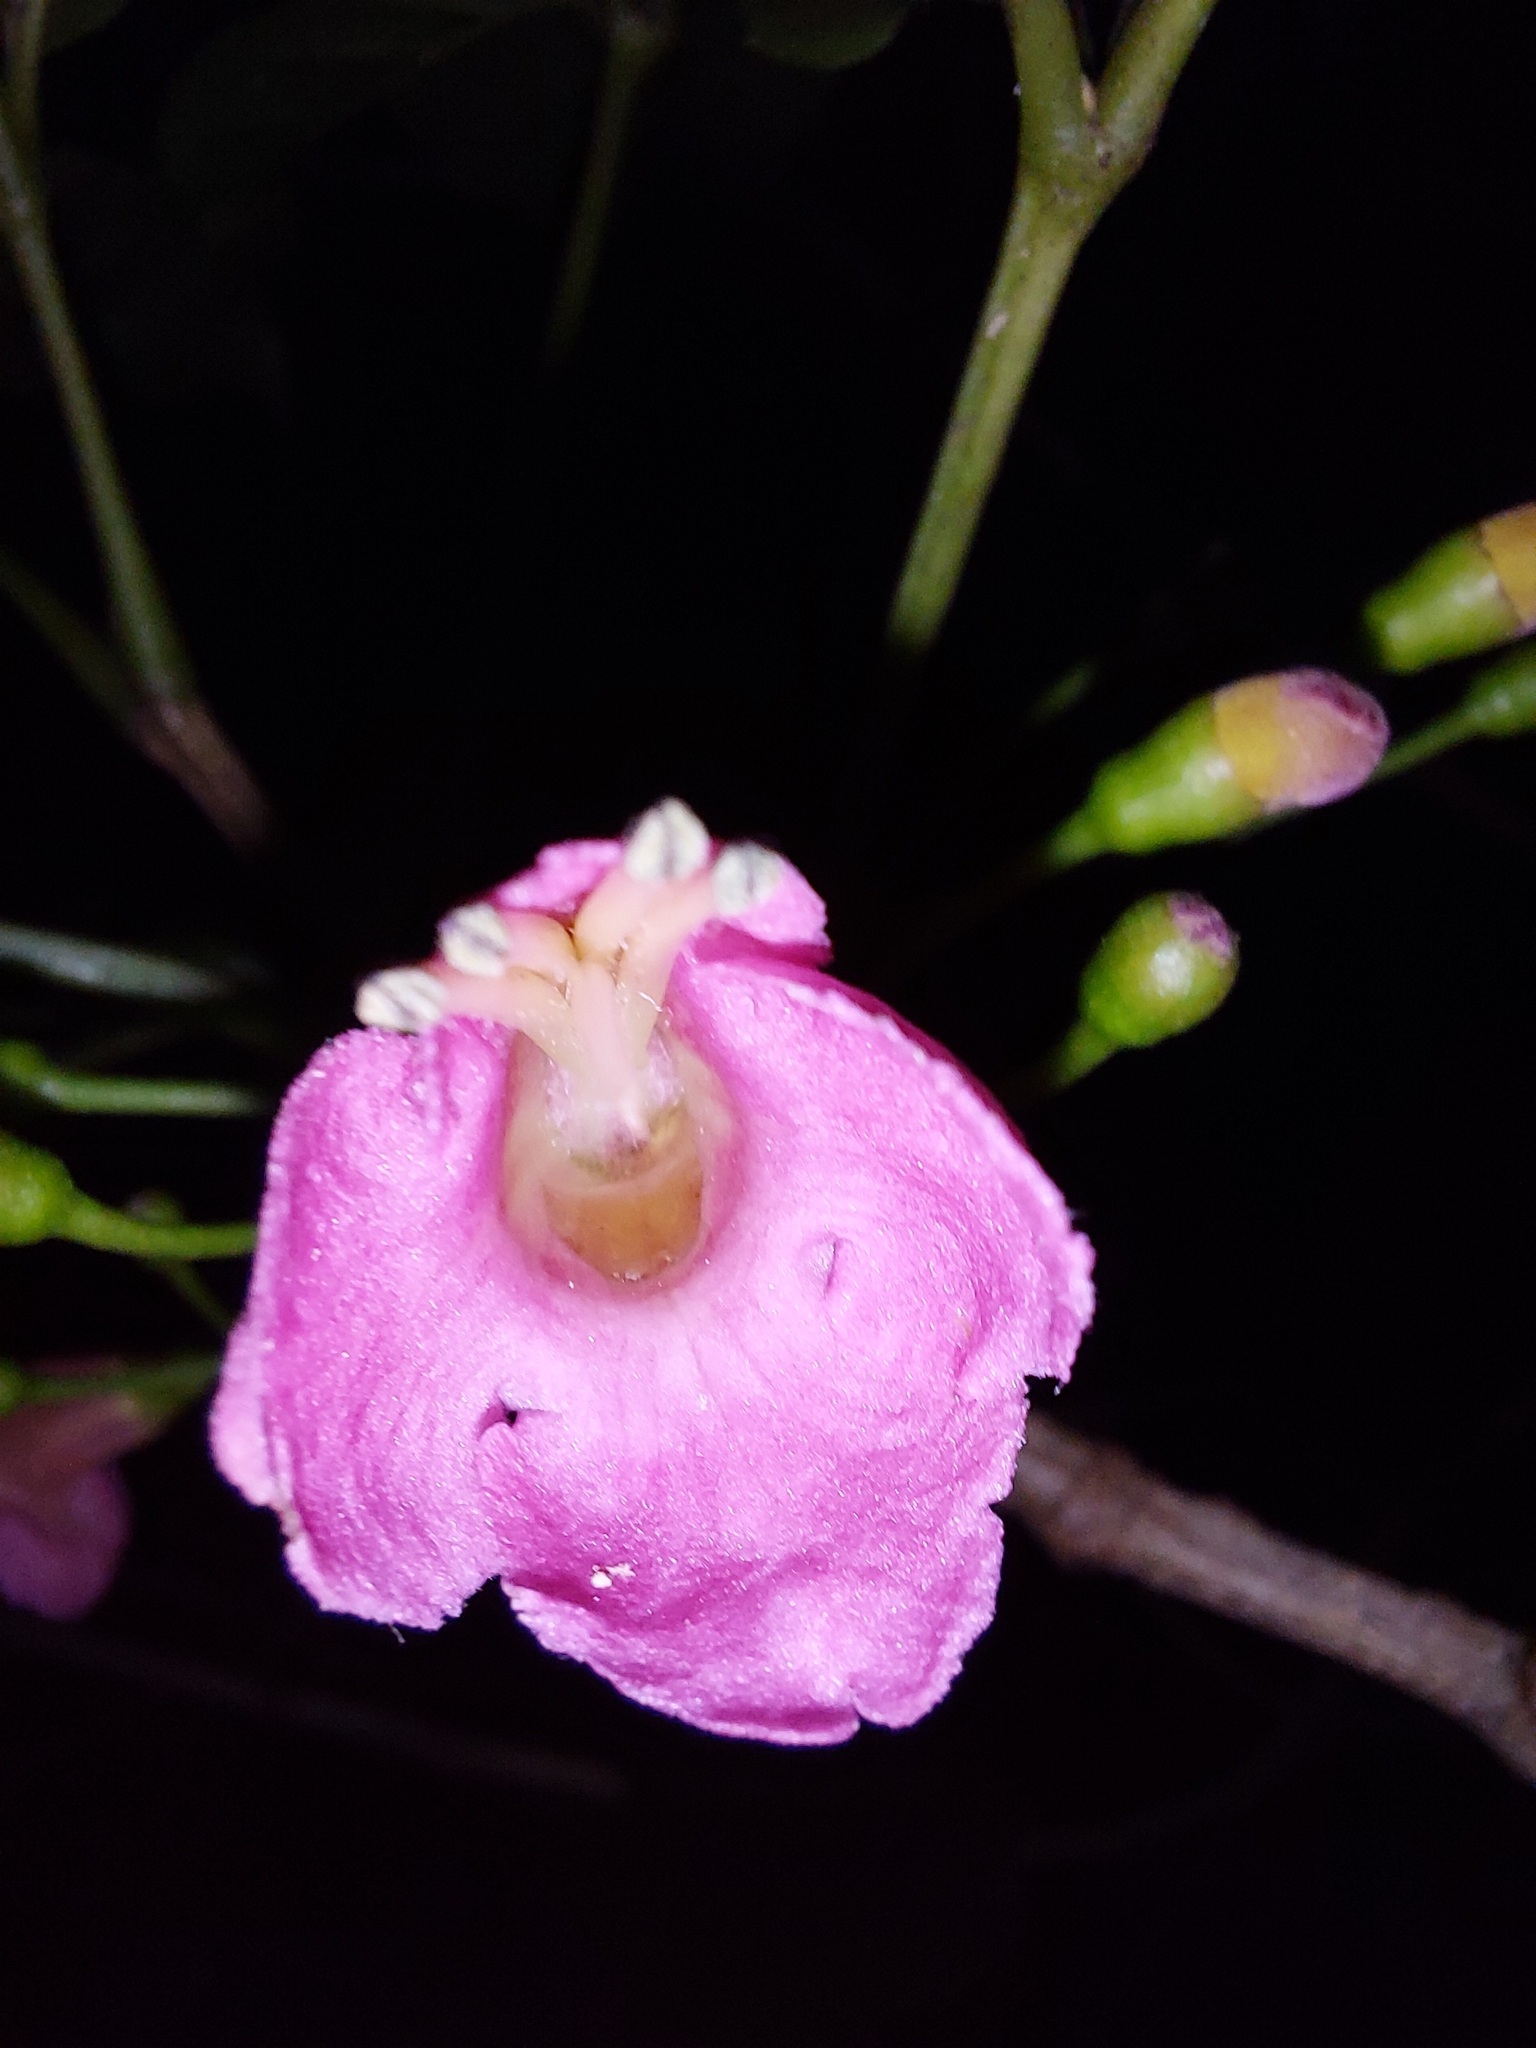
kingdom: Plantae
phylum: Tracheophyta
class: Magnoliopsida
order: Lamiales
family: Lamiaceae
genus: Vitex
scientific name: Vitex lucens
